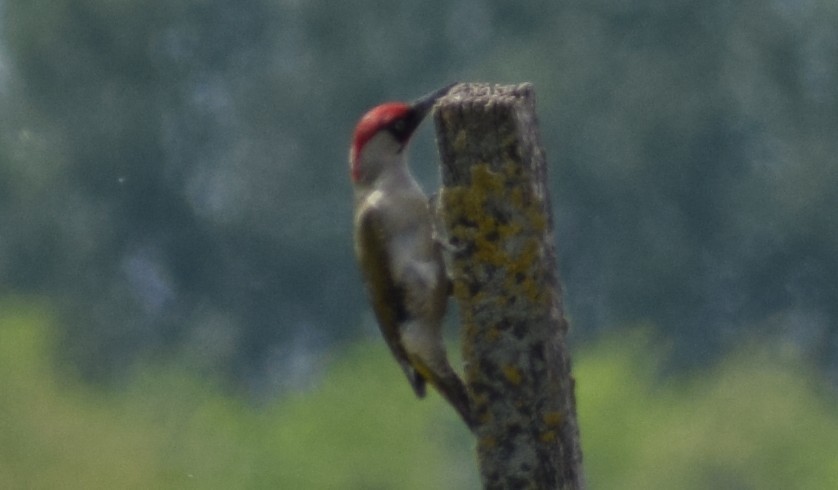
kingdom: Animalia
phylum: Chordata
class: Aves
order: Piciformes
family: Picidae
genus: Picus
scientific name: Picus viridis
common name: European green woodpecker
